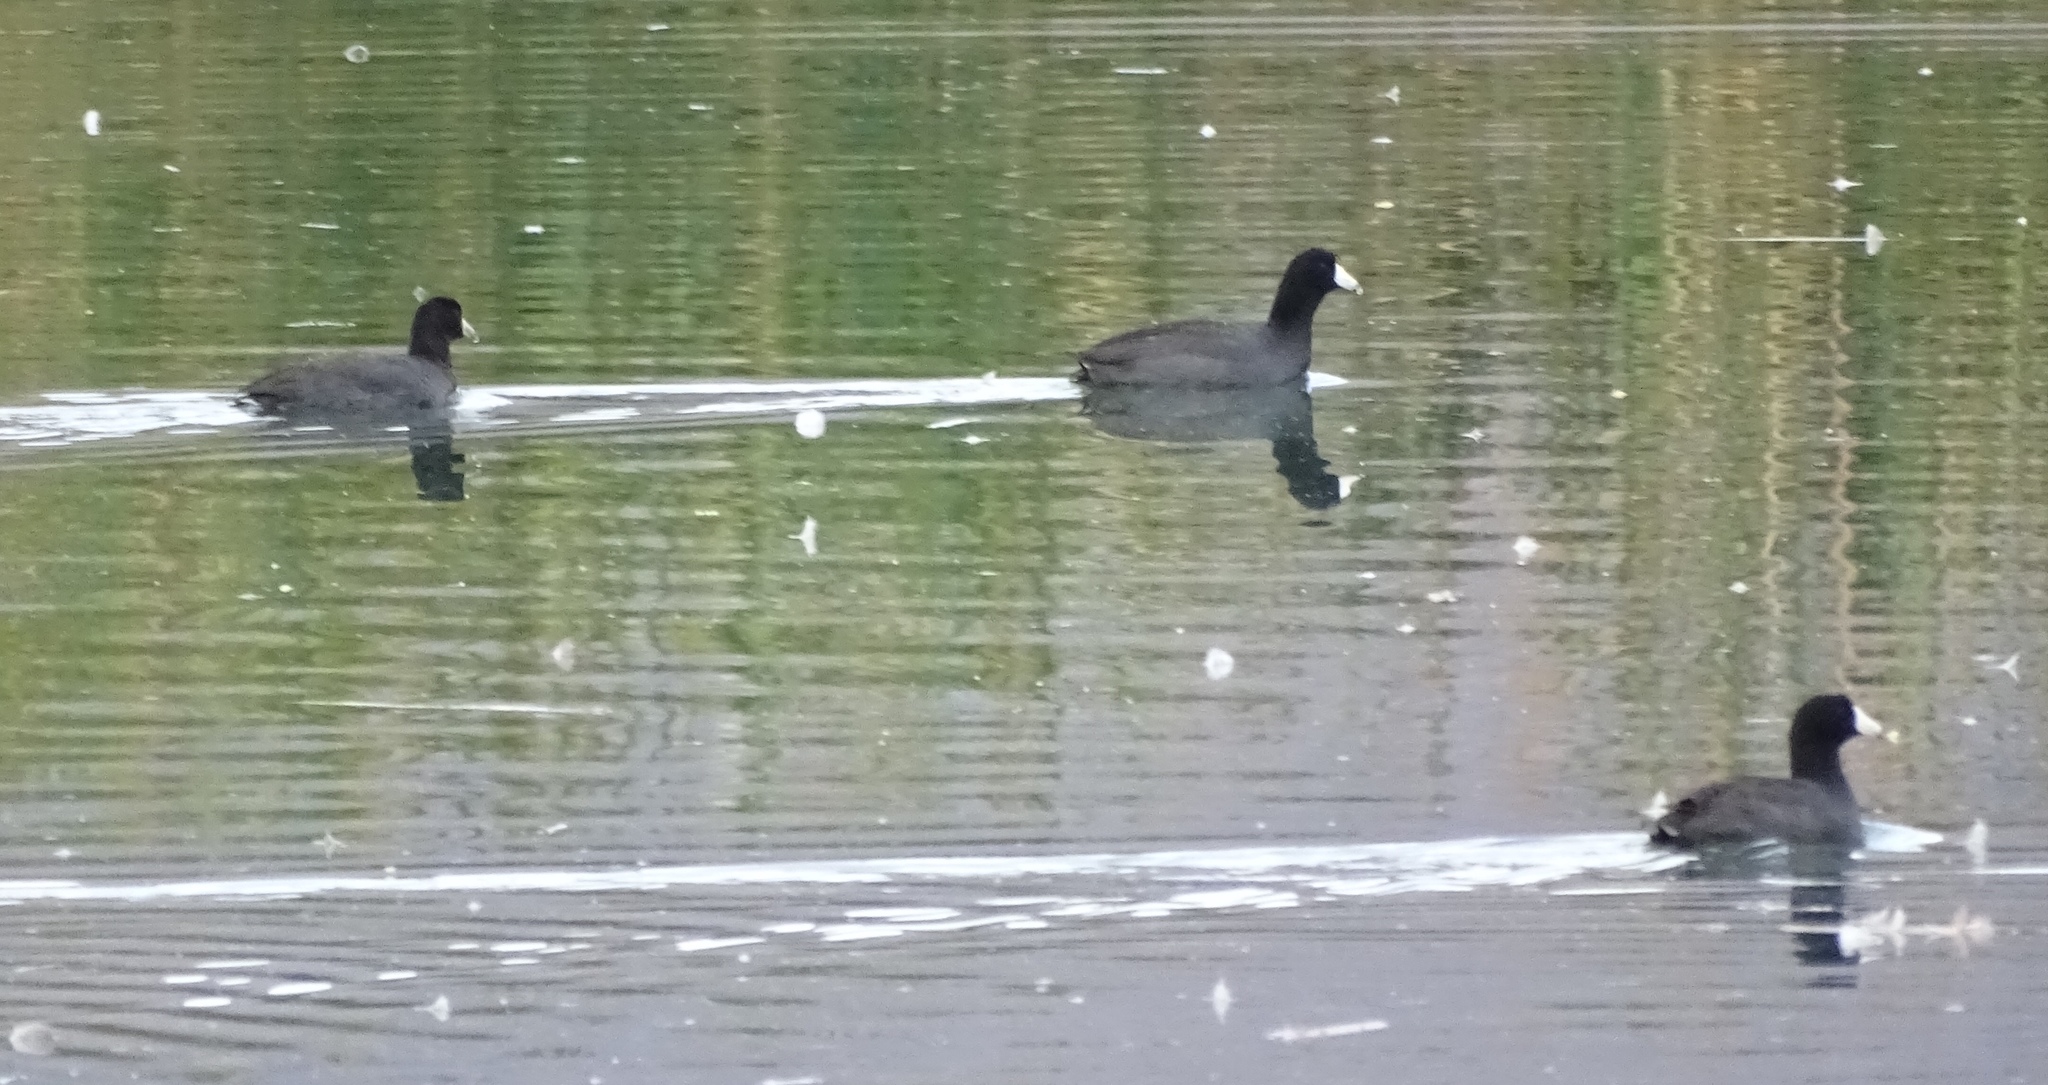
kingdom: Animalia
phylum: Chordata
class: Aves
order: Gruiformes
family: Rallidae
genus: Fulica
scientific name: Fulica americana
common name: American coot
